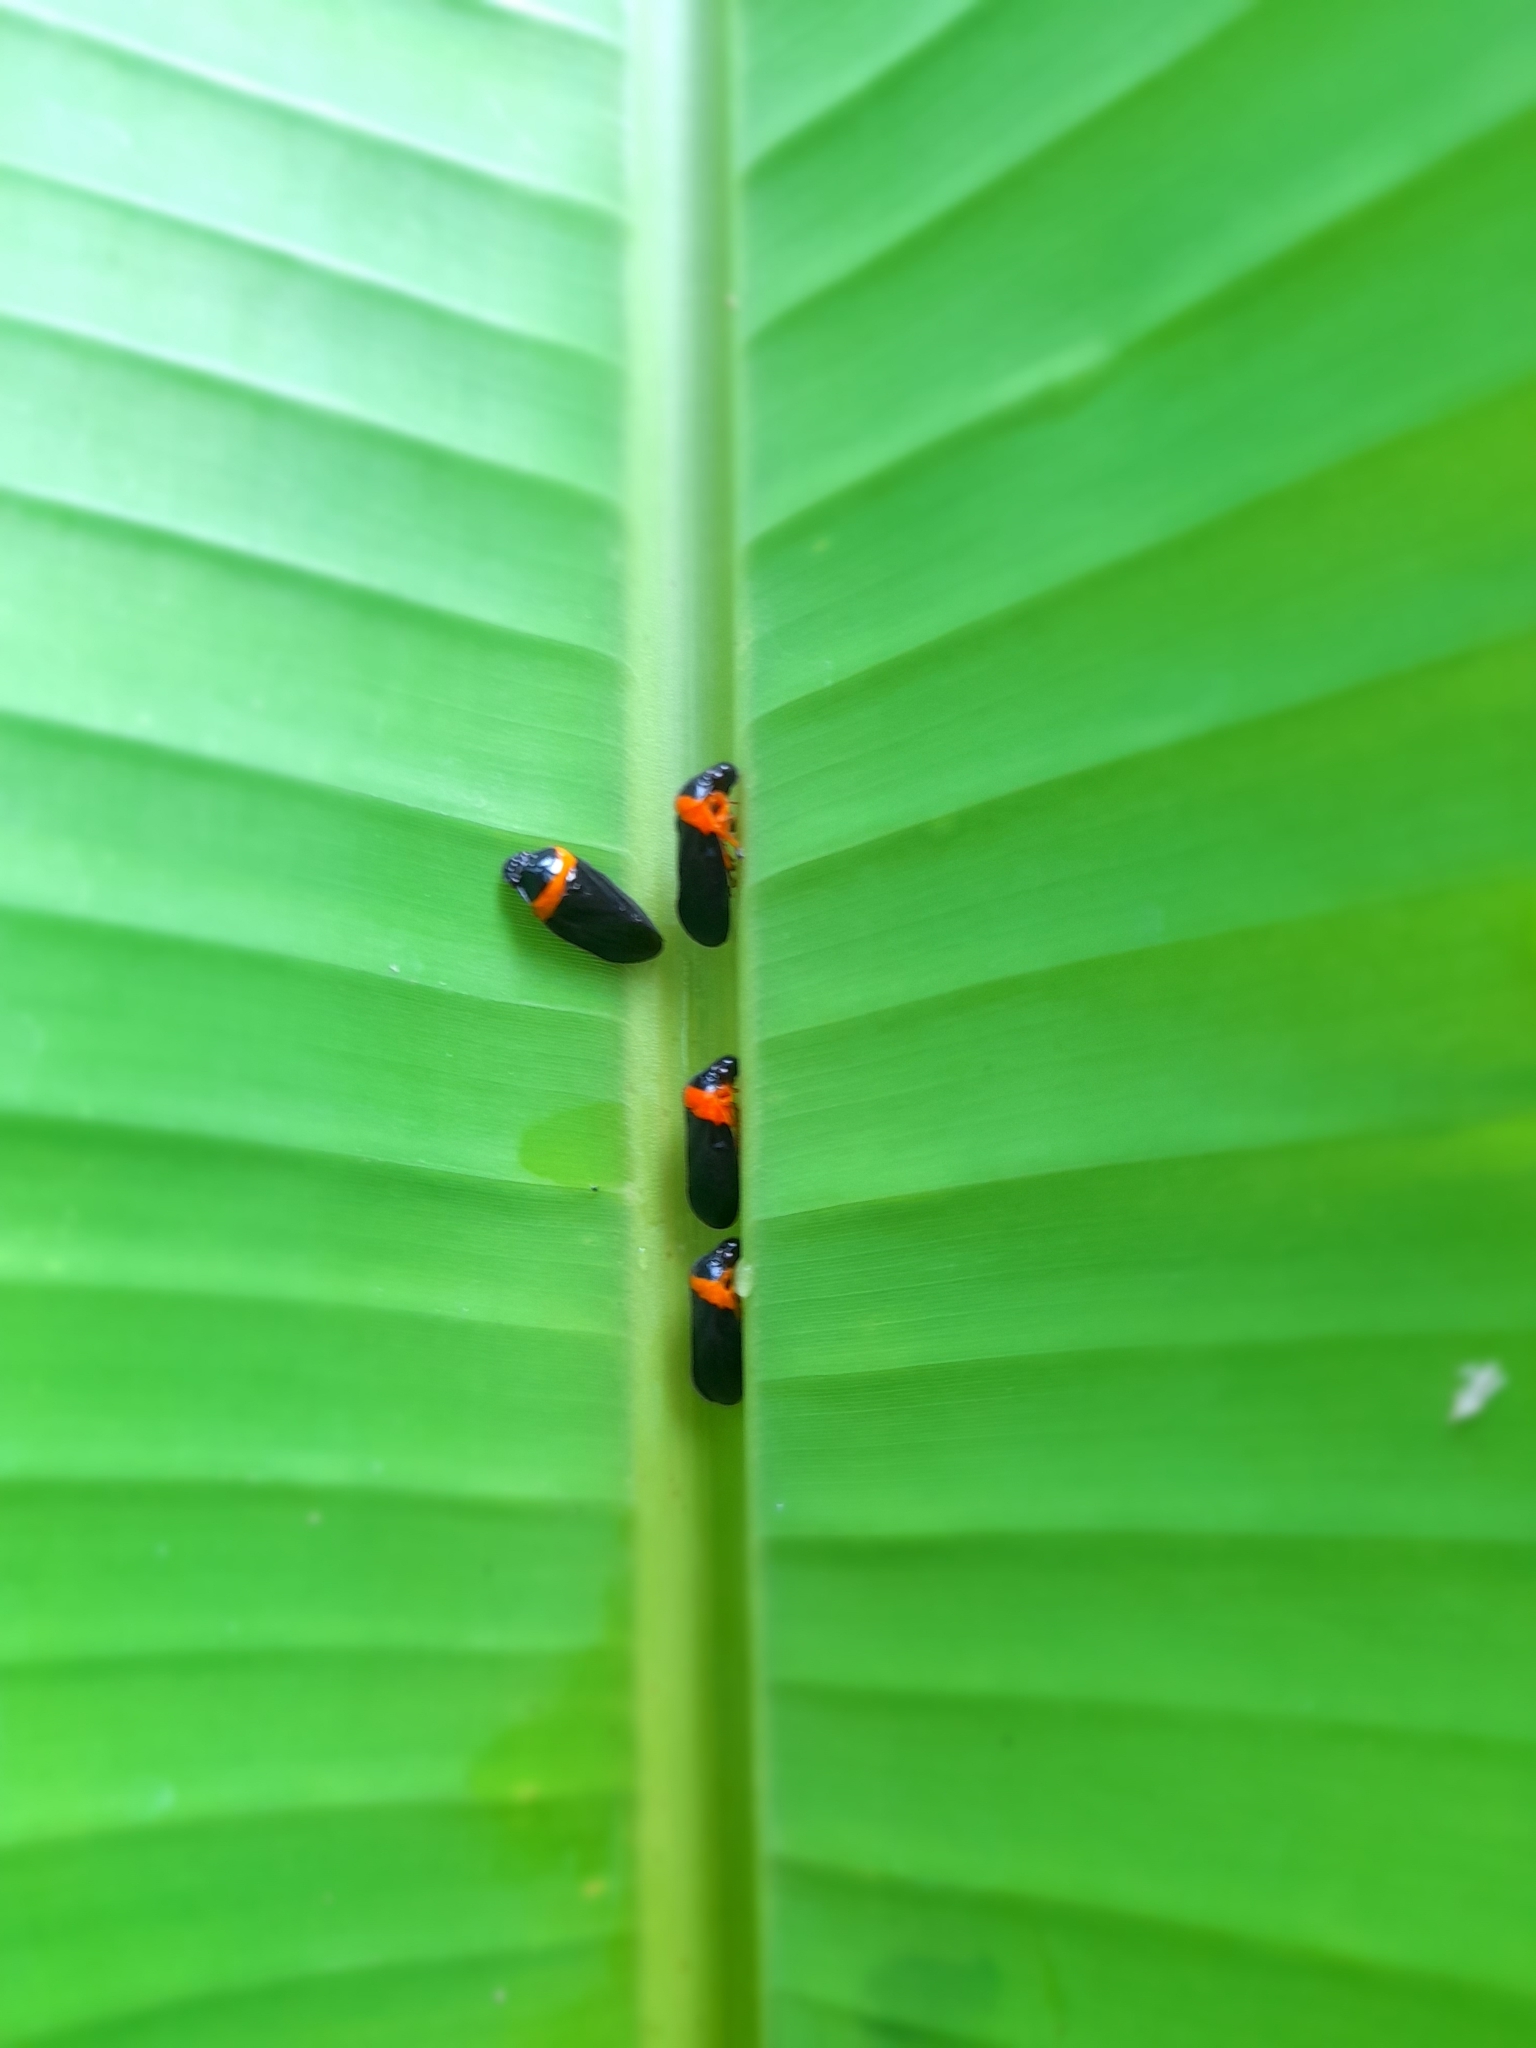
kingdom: Animalia
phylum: Arthropoda
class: Insecta
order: Hemiptera
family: Cercopidae
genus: Phymatostetha
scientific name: Phymatostetha deschampsi
